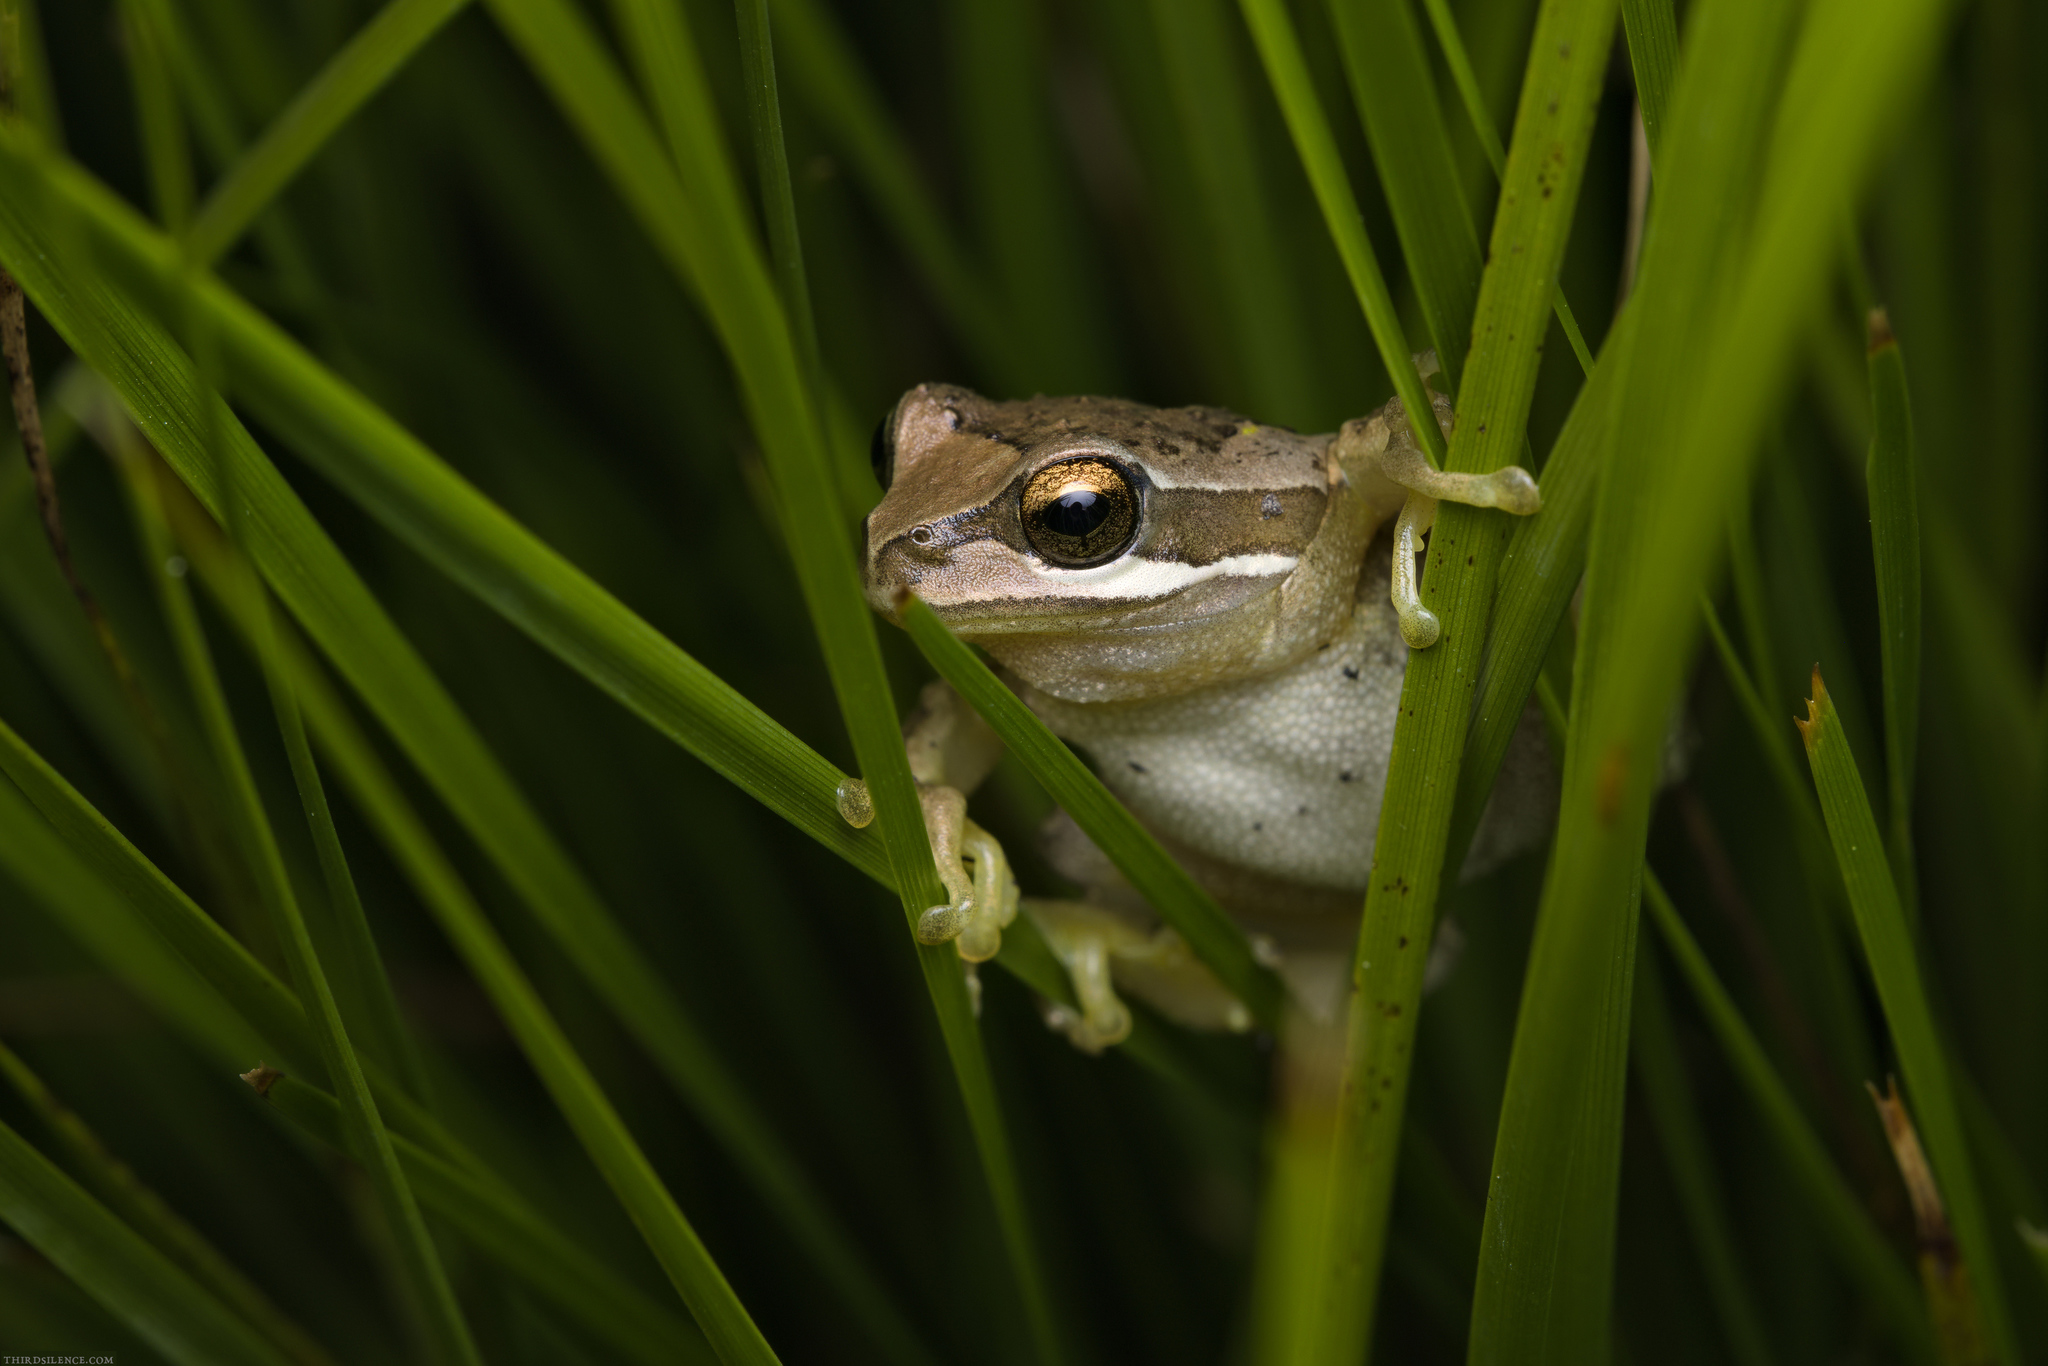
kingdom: Animalia
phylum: Chordata
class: Amphibia
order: Anura
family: Pelodryadidae
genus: Litoria
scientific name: Litoria ewingii
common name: Southern brown tree frog
